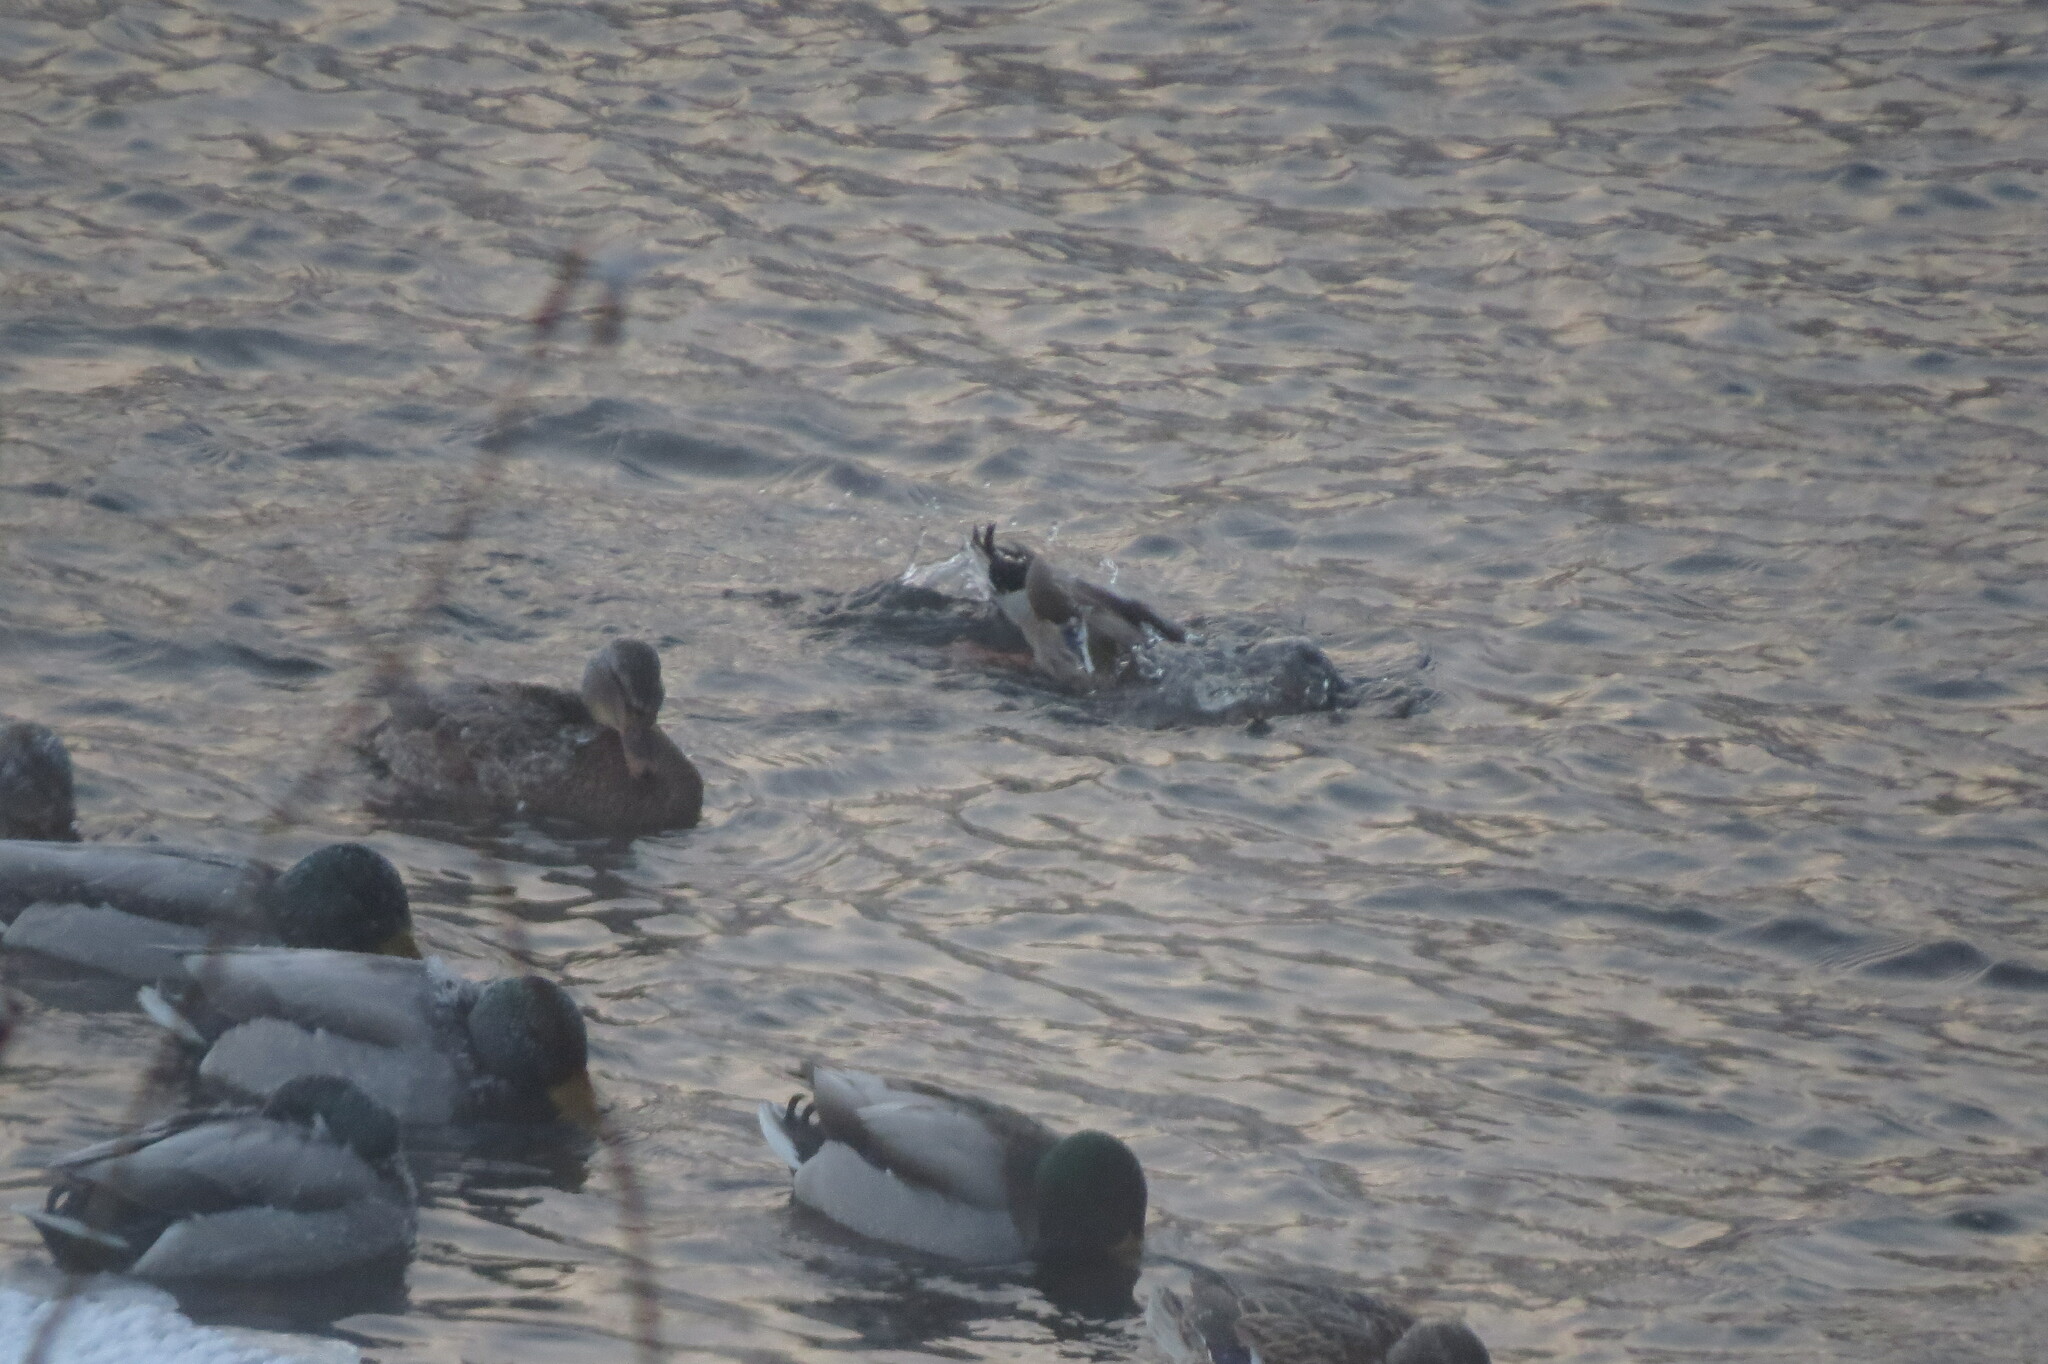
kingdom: Animalia
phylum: Chordata
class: Aves
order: Anseriformes
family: Anatidae
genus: Anas
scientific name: Anas platyrhynchos
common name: Mallard
